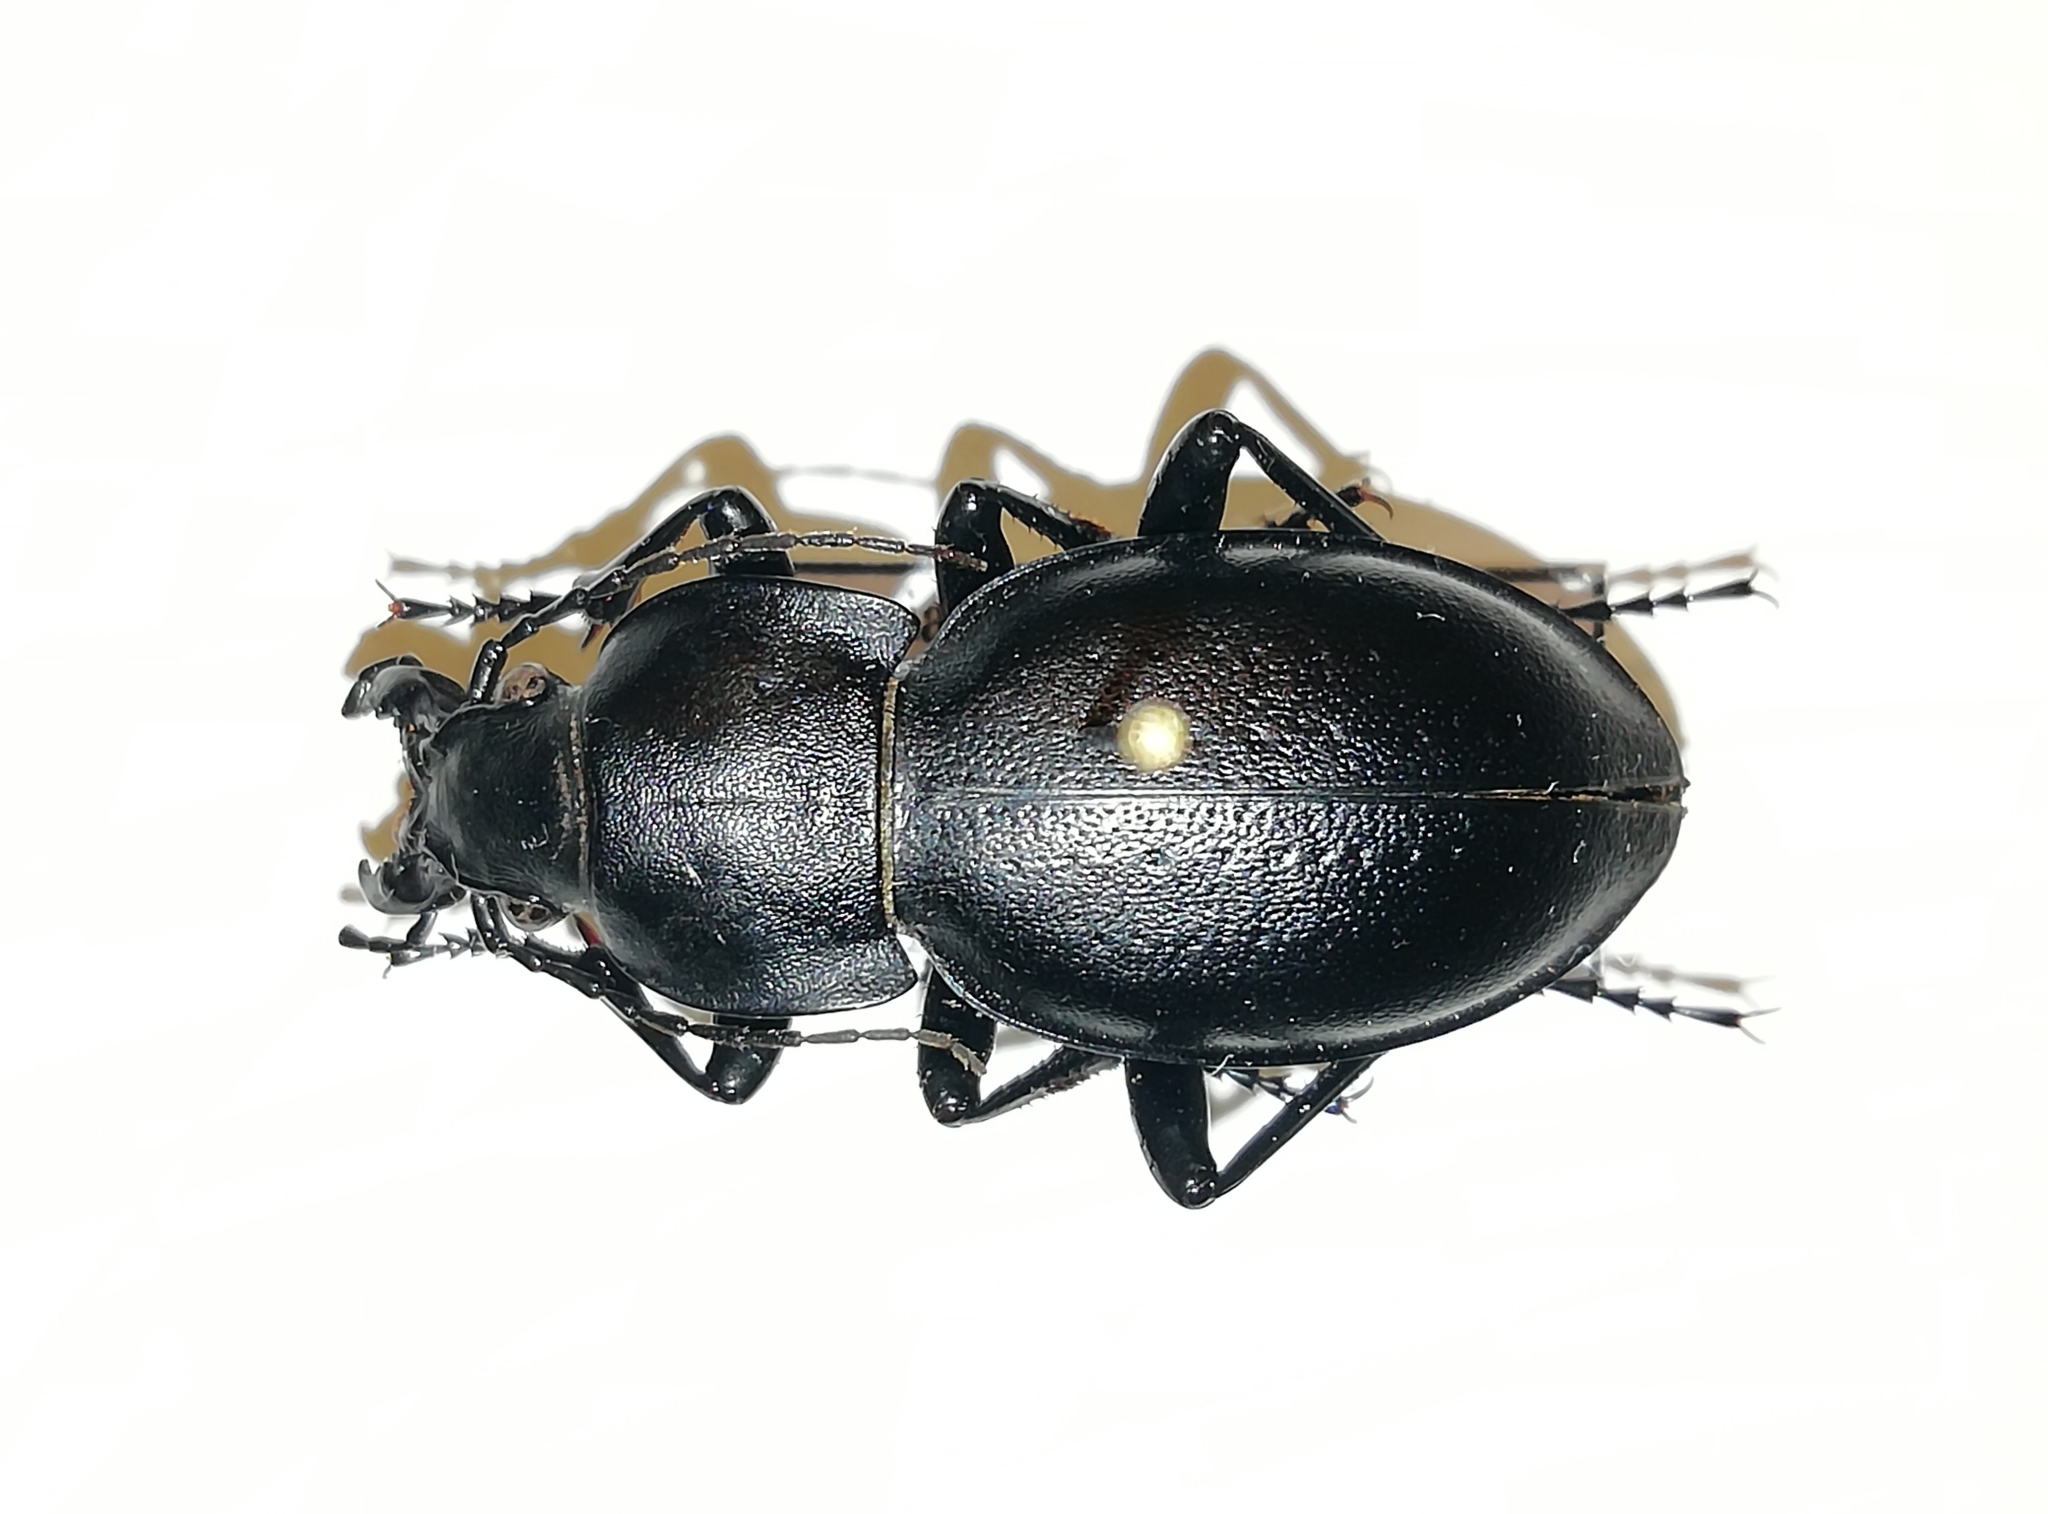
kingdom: Animalia
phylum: Arthropoda
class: Insecta
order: Coleoptera
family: Carabidae
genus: Carabus
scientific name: Carabus hungaricus
